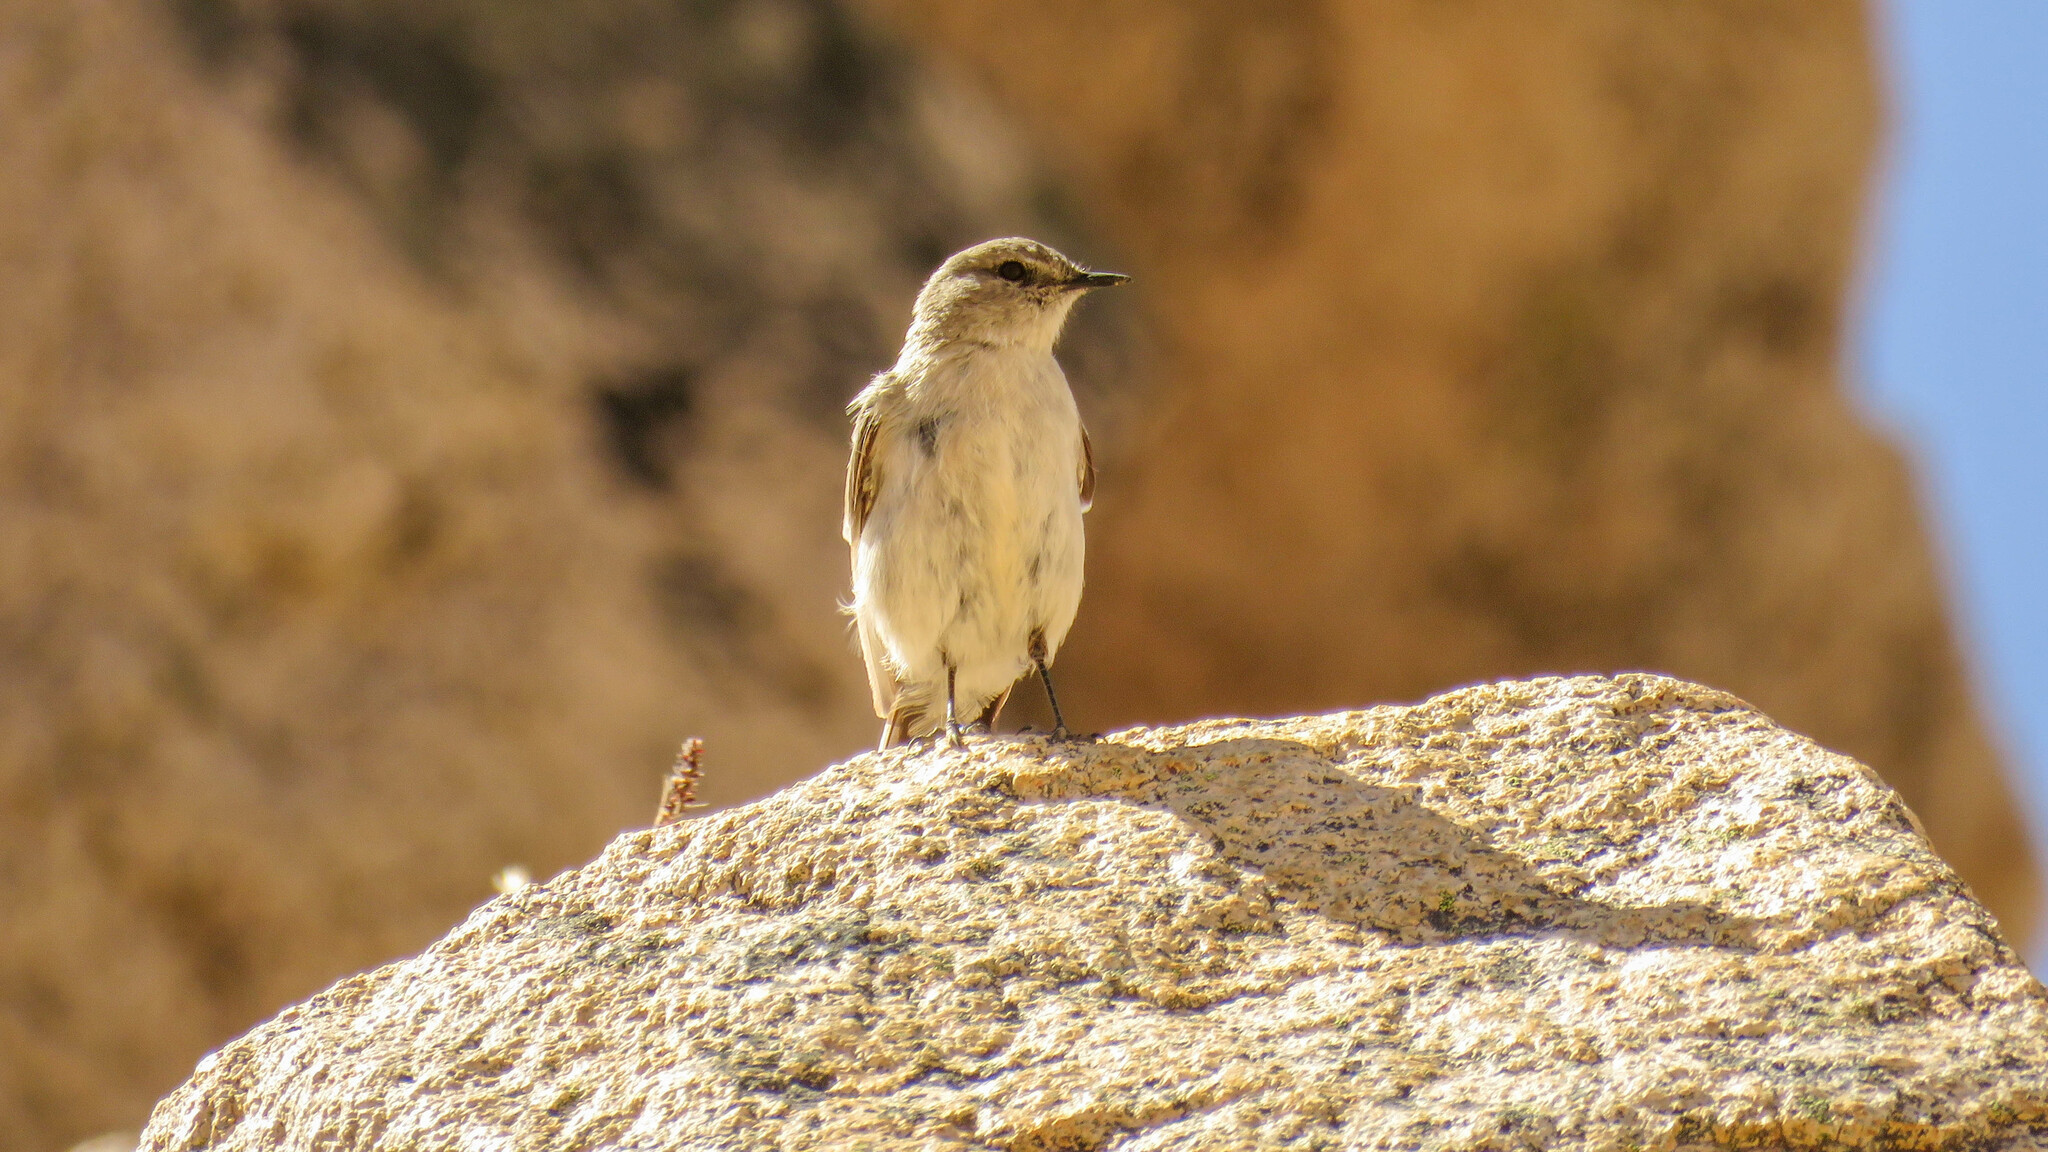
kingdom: Animalia
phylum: Chordata
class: Aves
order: Passeriformes
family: Tyrannidae
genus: Muscisaxicola
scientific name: Muscisaxicola cinereus
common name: Cinereous ground tyrant
